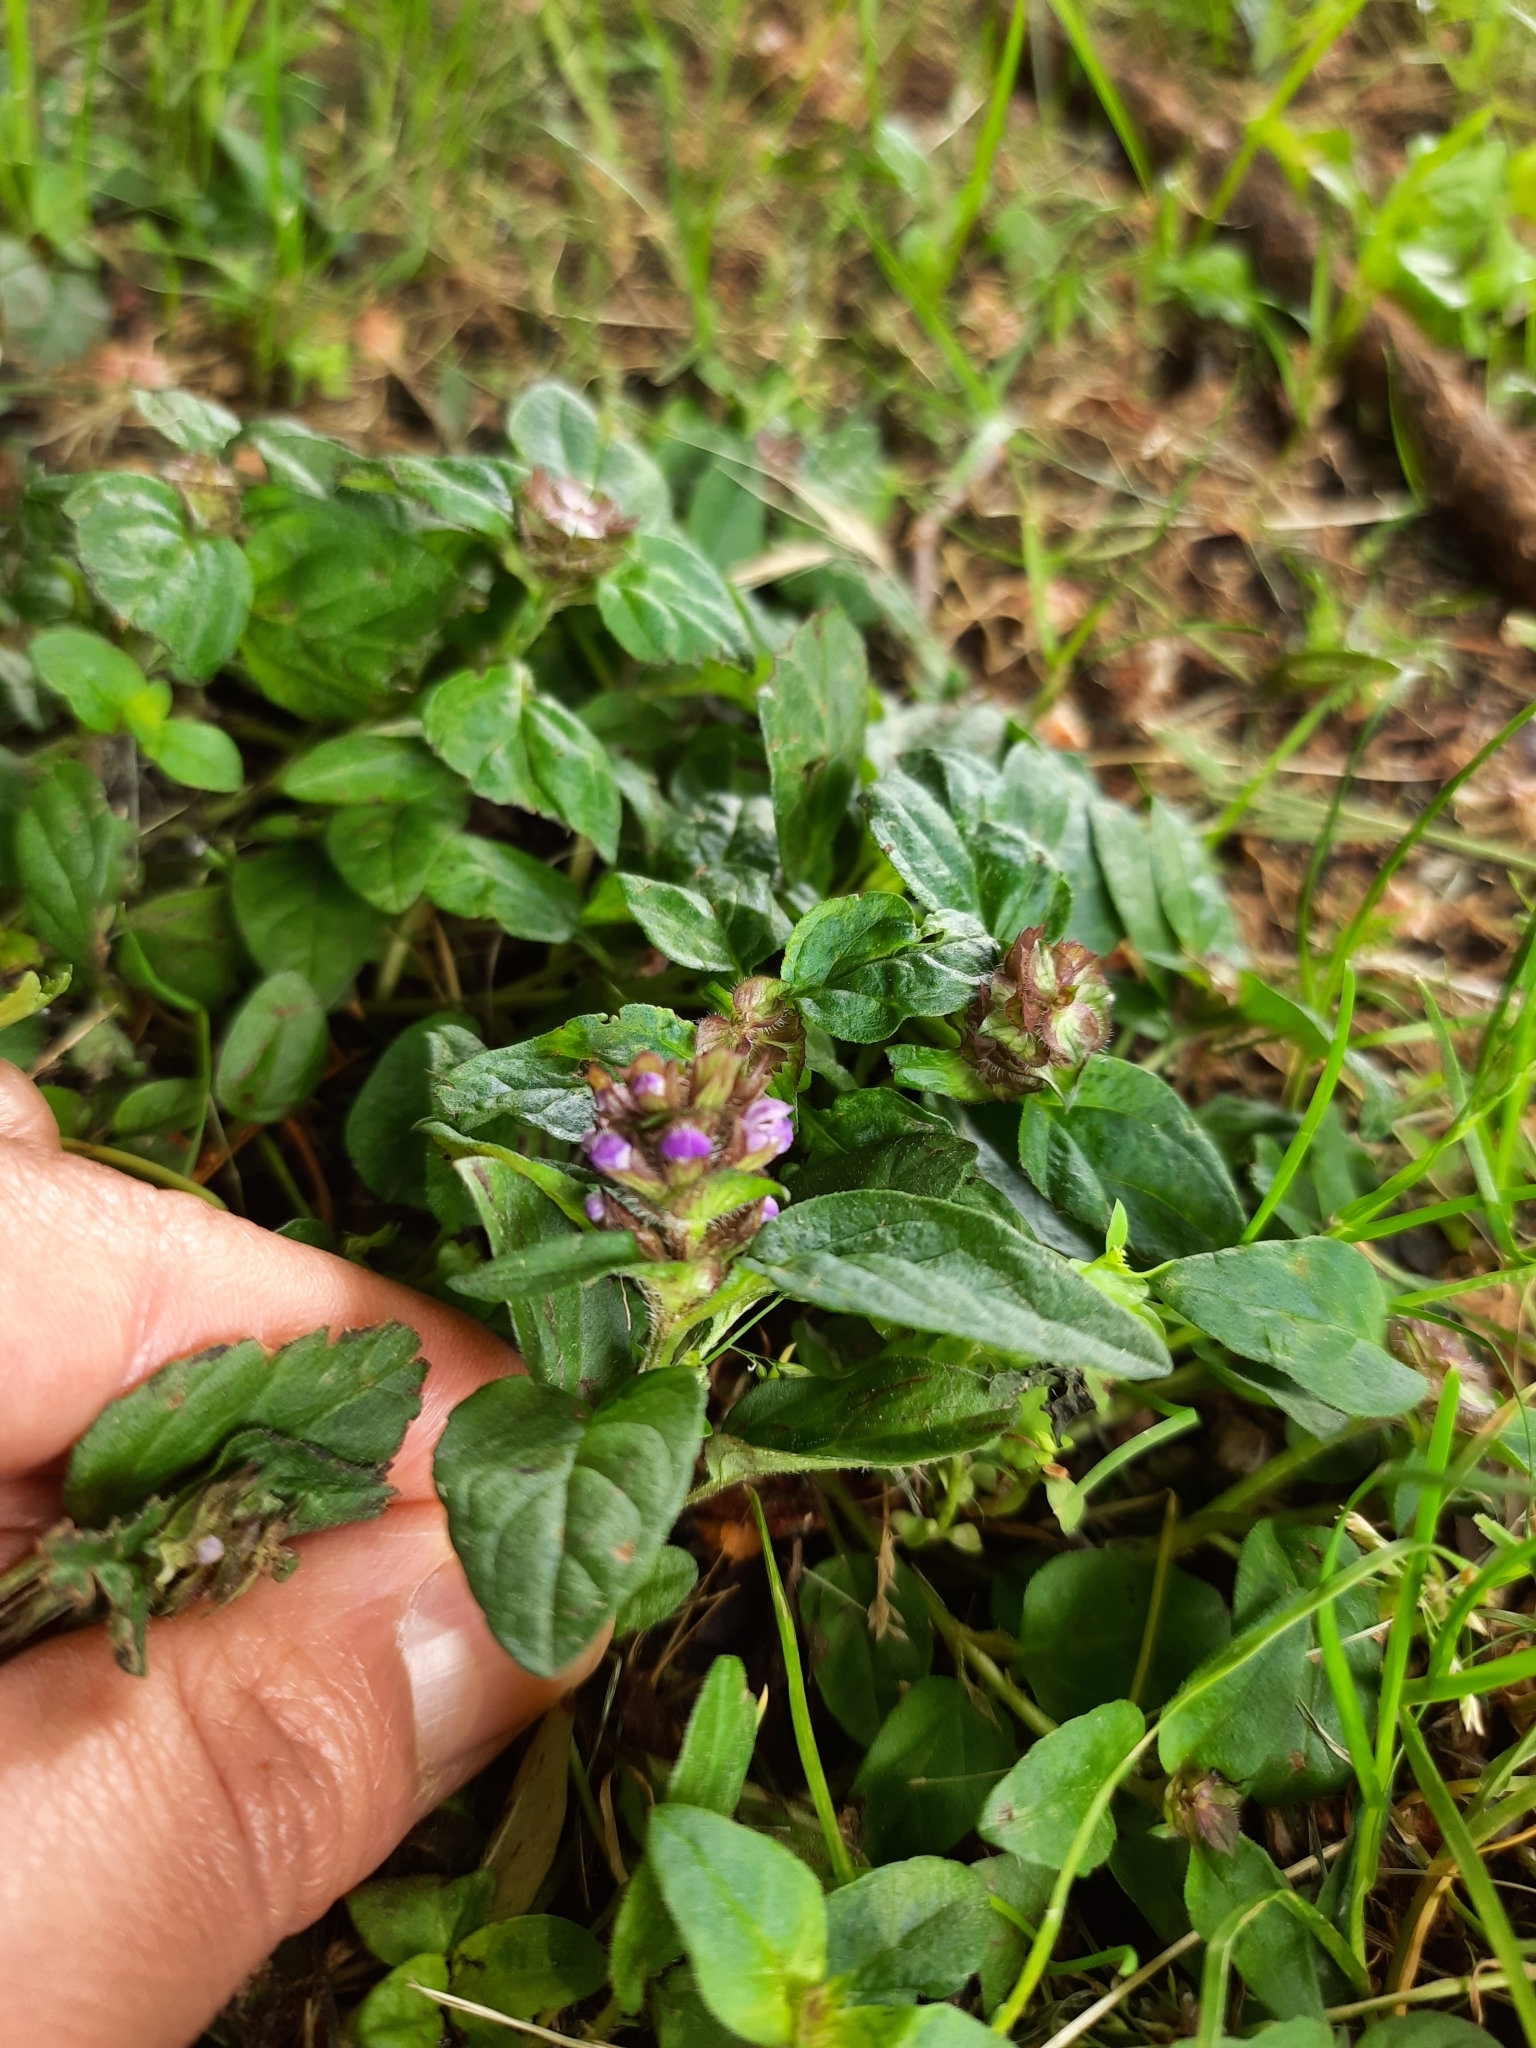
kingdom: Plantae
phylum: Tracheophyta
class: Magnoliopsida
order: Lamiales
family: Lamiaceae
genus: Prunella
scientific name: Prunella vulgaris
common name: Heal-all
